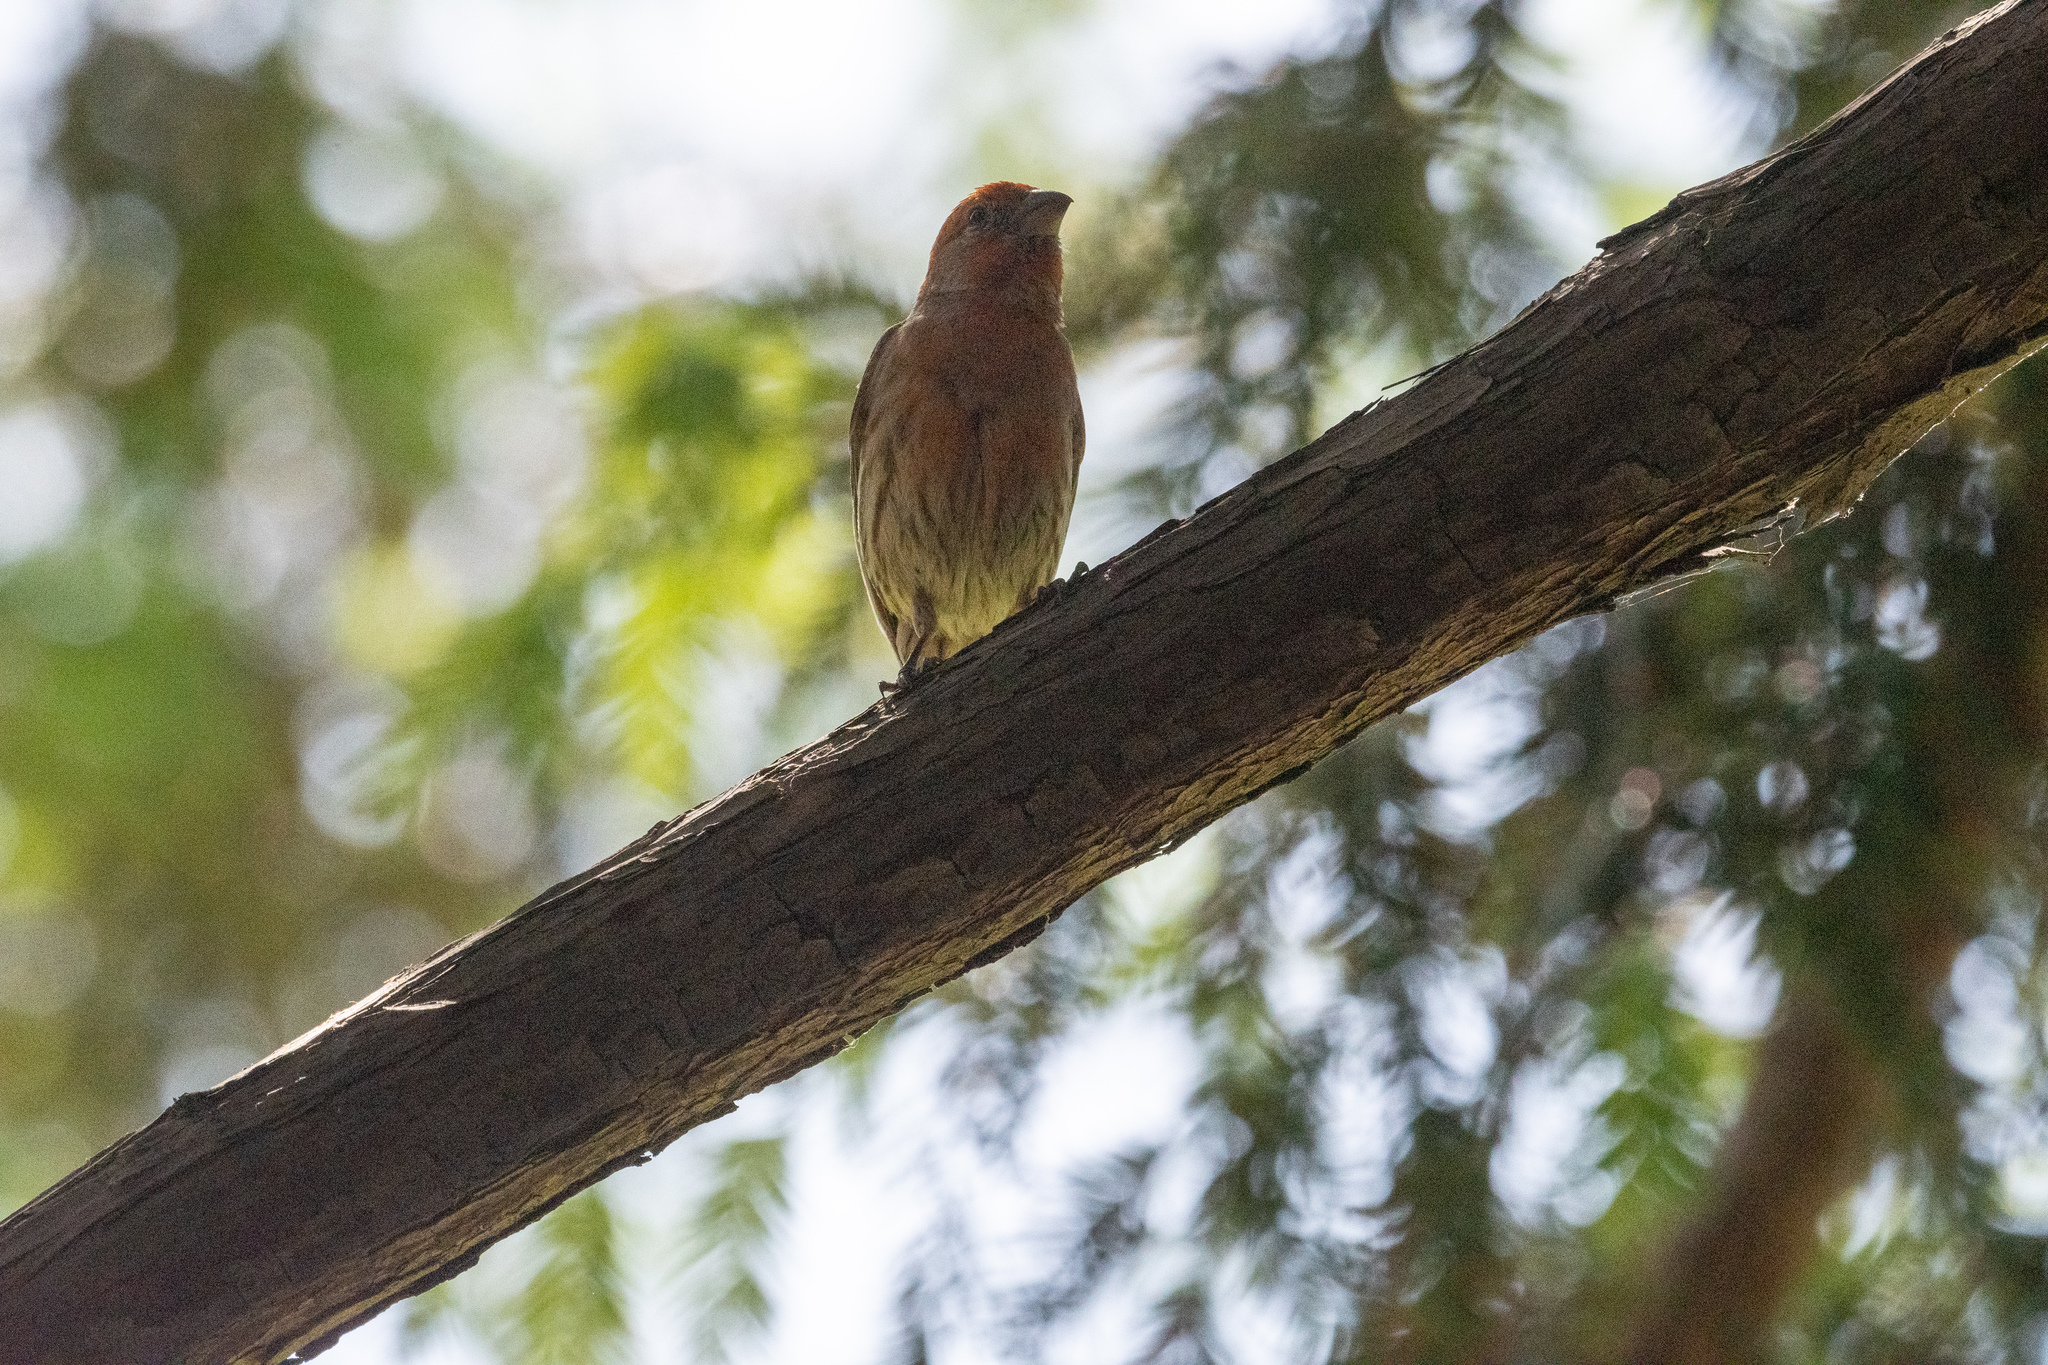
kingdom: Animalia
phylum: Chordata
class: Aves
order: Passeriformes
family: Fringillidae
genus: Haemorhous
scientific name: Haemorhous mexicanus
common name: House finch
